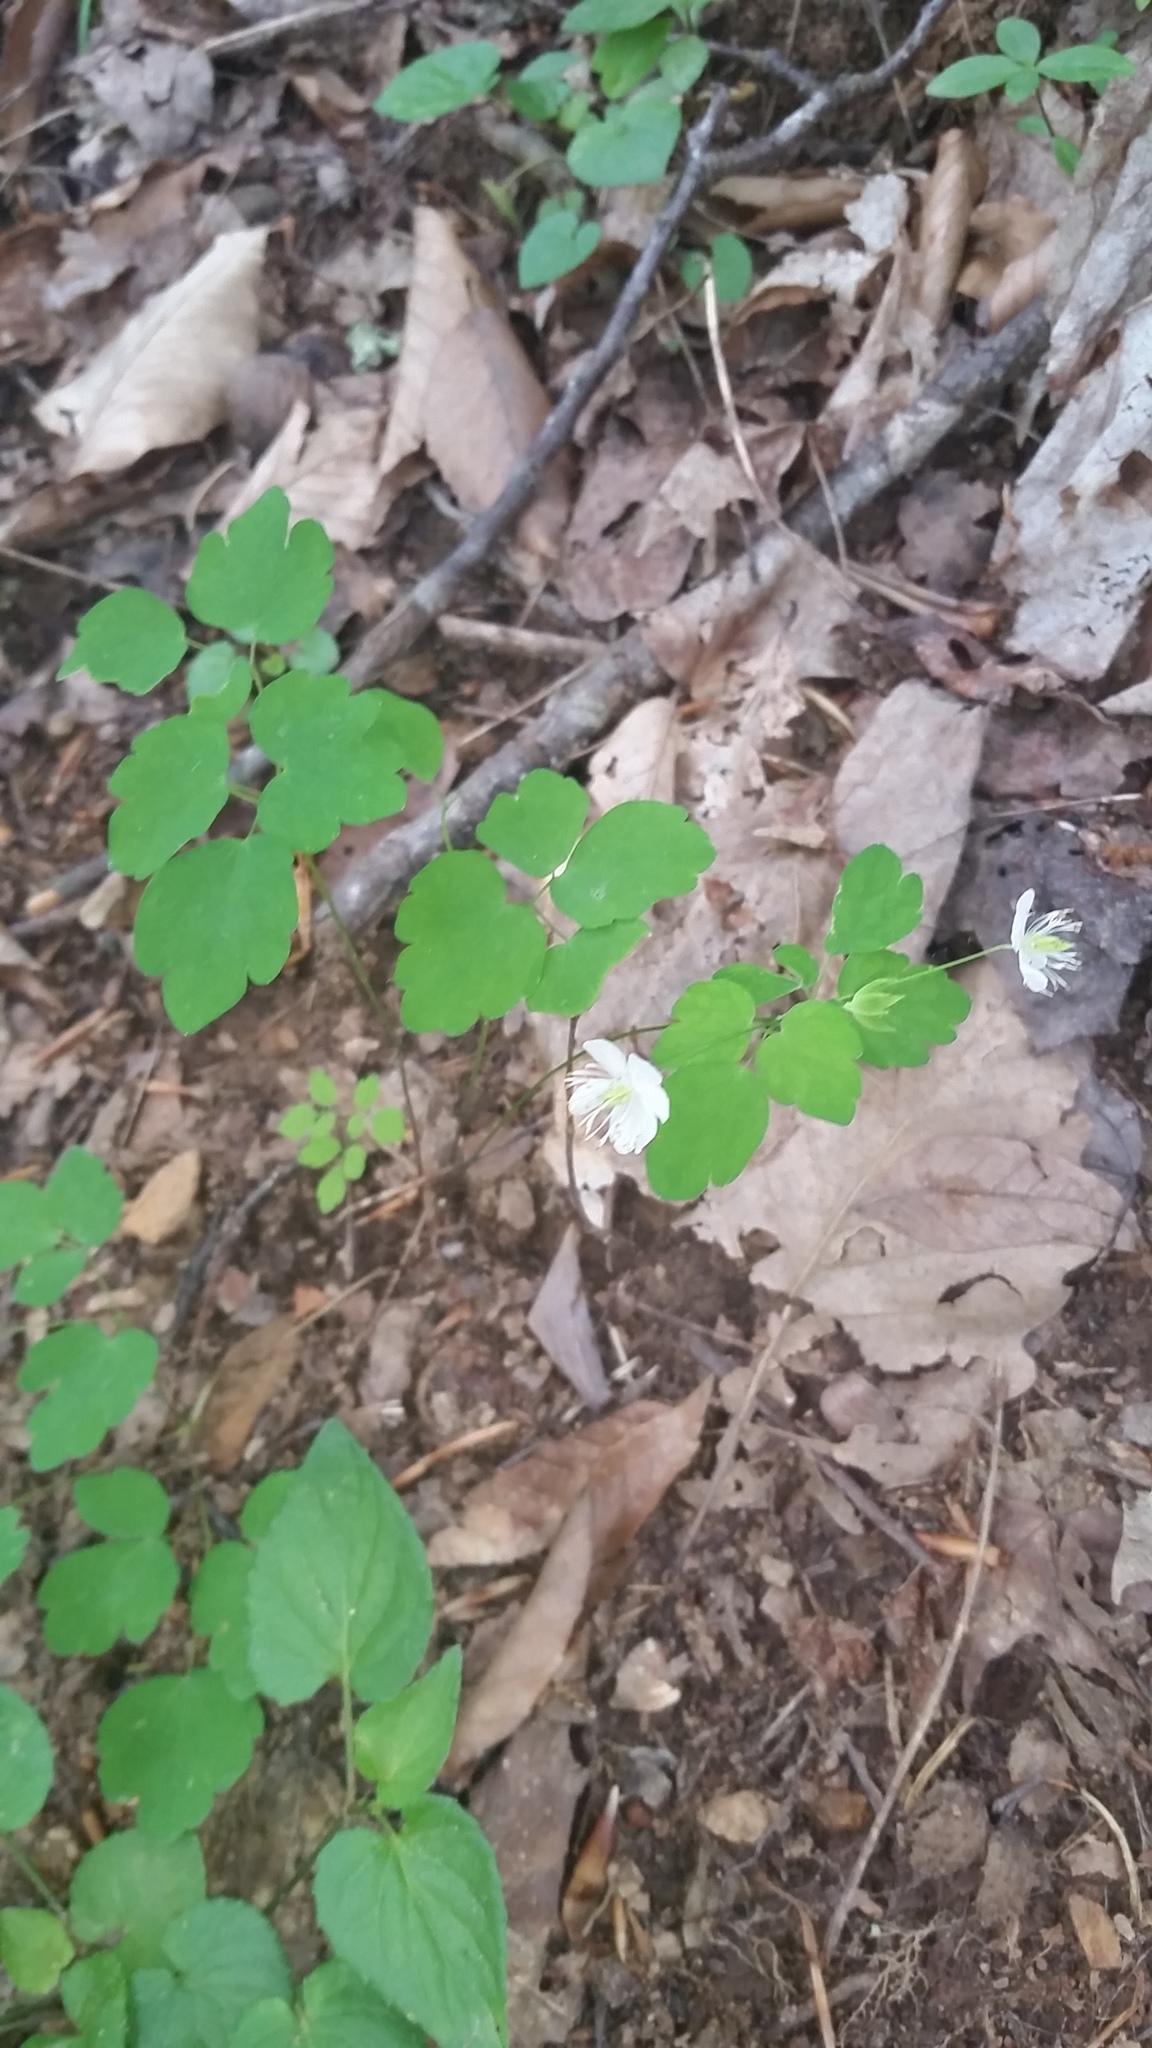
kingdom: Plantae
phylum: Tracheophyta
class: Magnoliopsida
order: Ranunculales
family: Ranunculaceae
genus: Thalictrum
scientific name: Thalictrum thalictroides
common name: Rue-anemone
